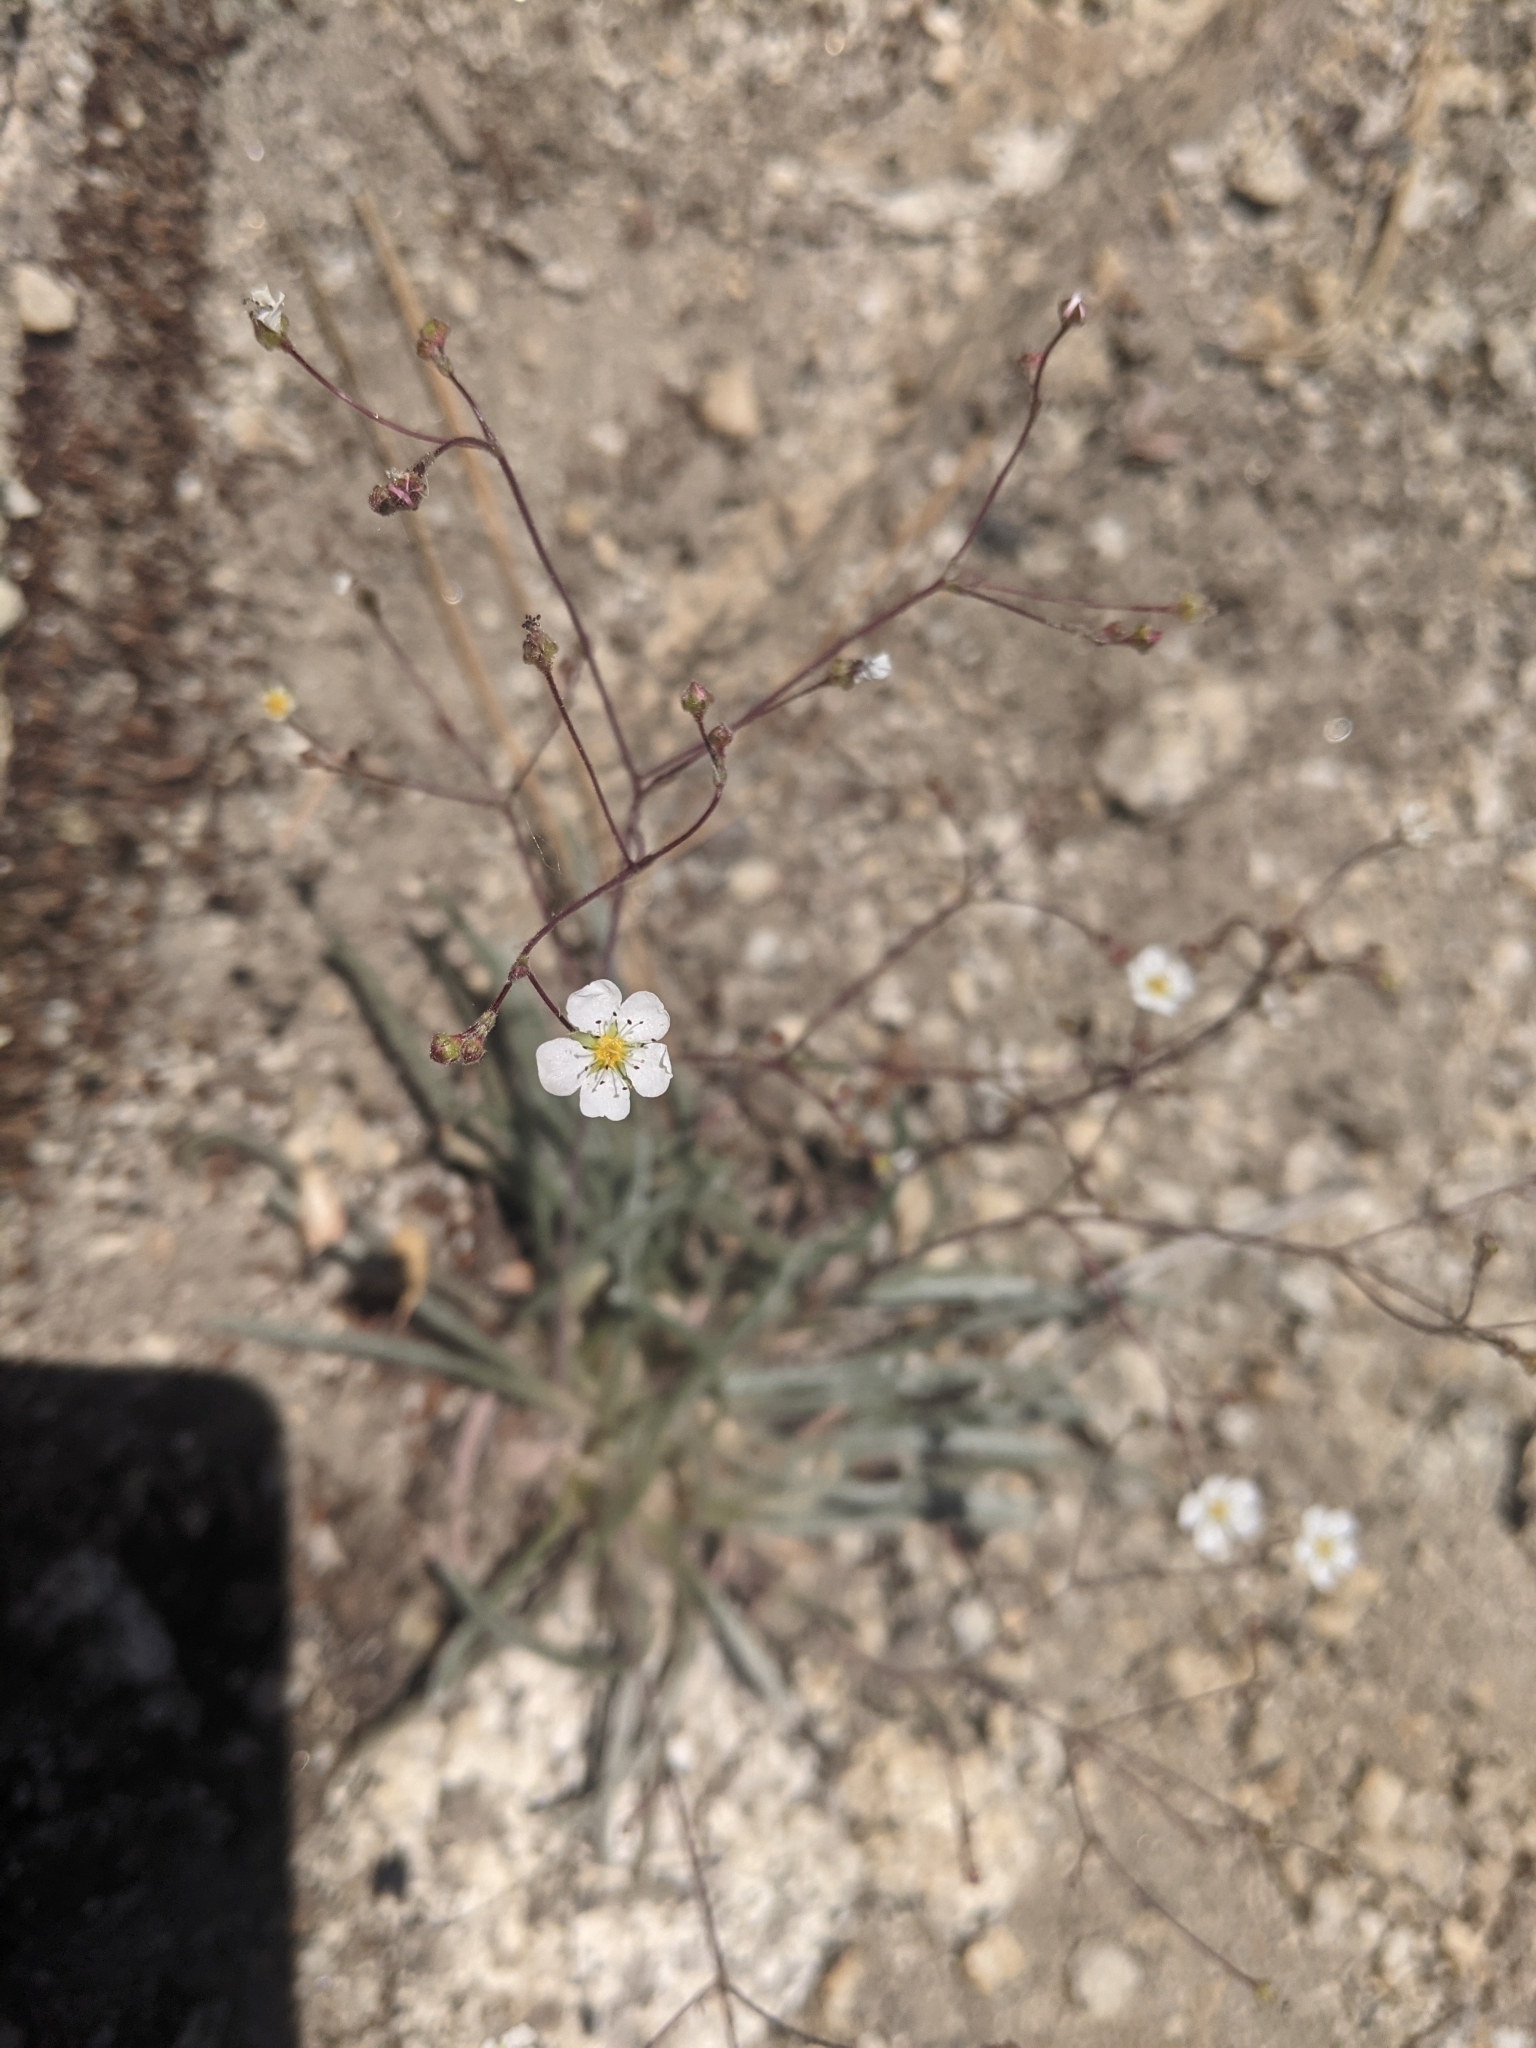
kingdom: Plantae
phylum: Tracheophyta
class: Magnoliopsida
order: Rosales
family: Rosaceae
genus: Potentilla
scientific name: Potentilla santolinoides
